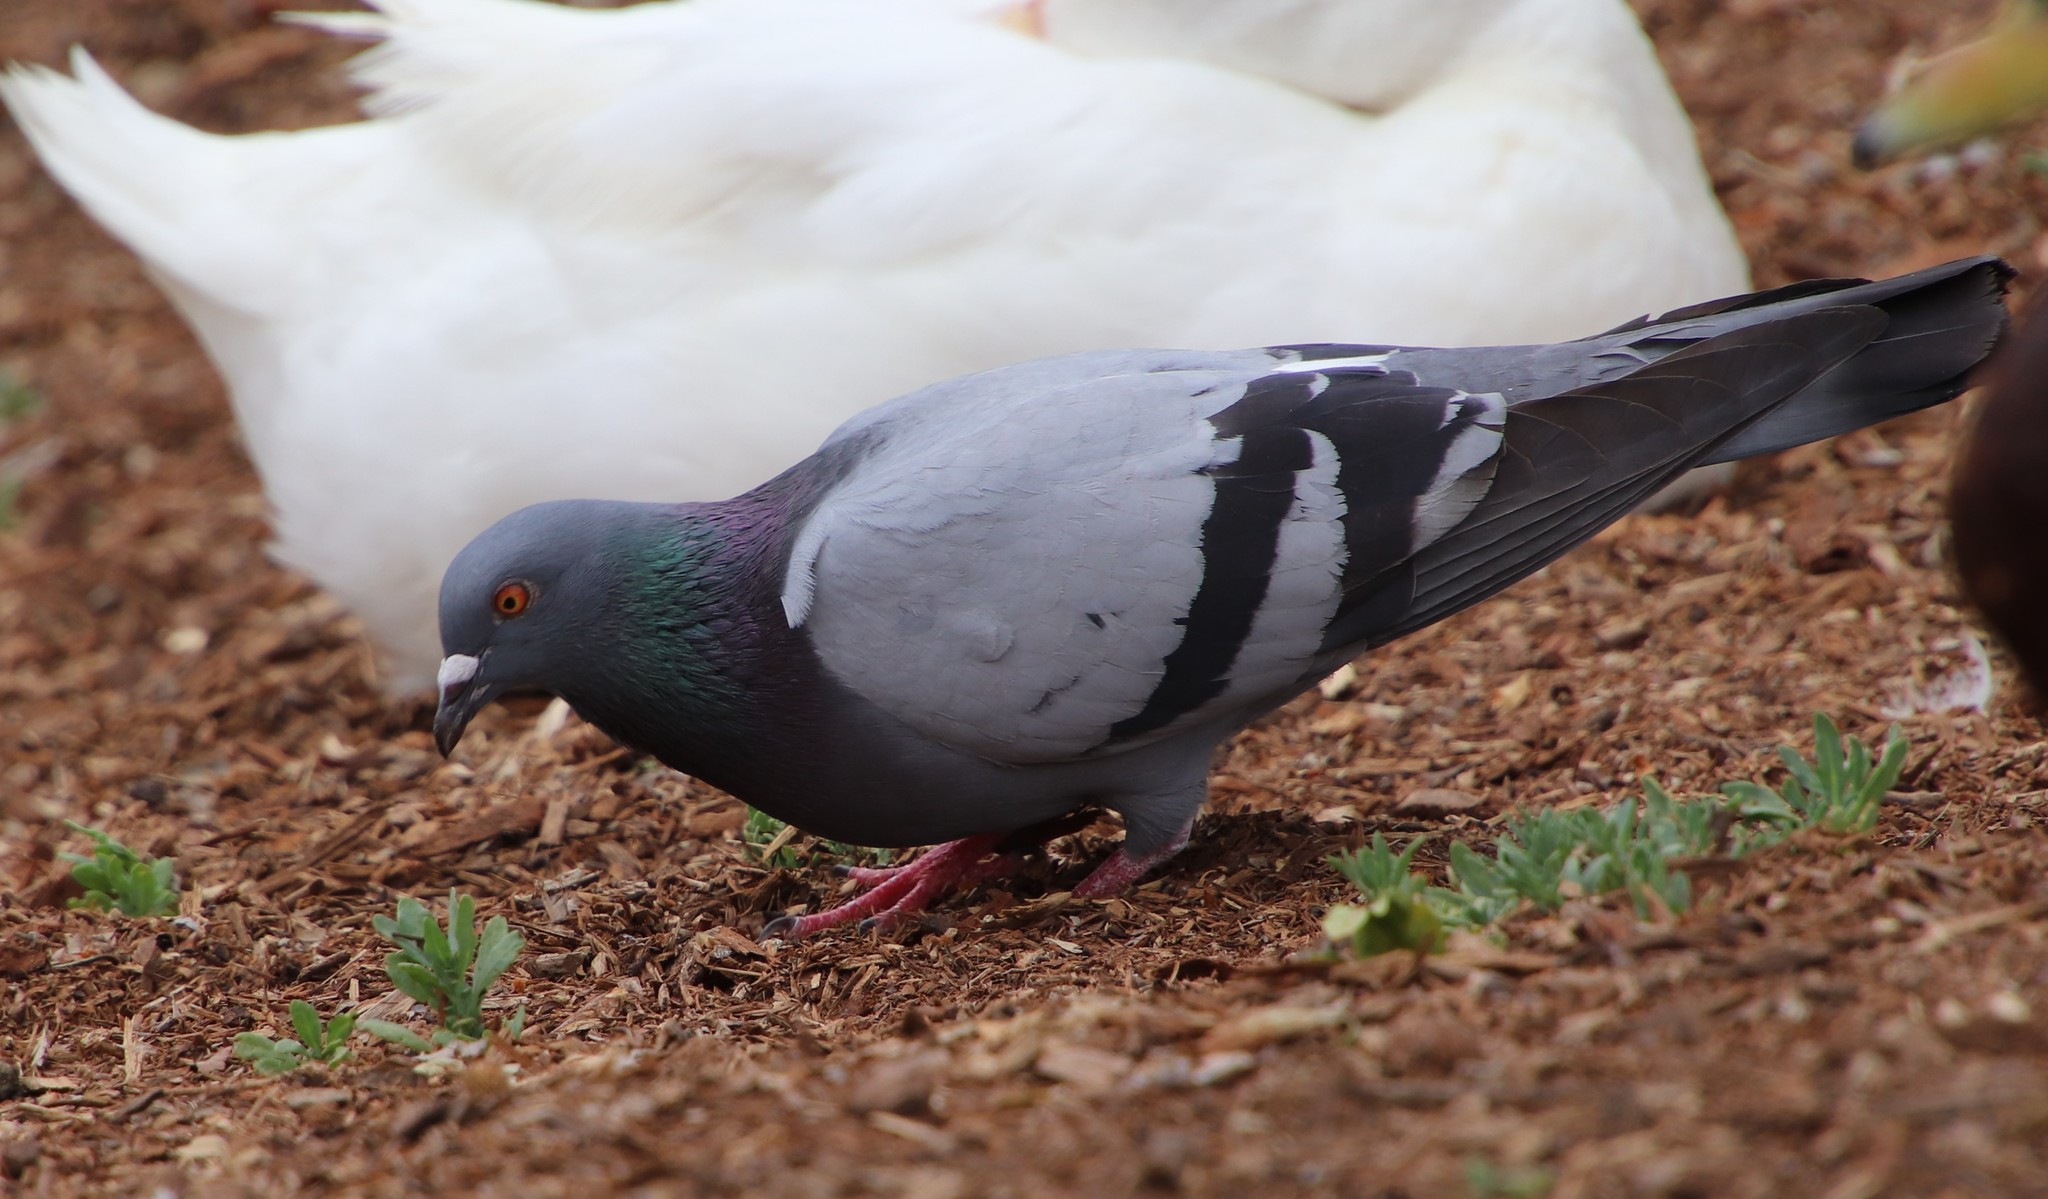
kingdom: Animalia
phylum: Chordata
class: Aves
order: Columbiformes
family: Columbidae
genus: Columba
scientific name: Columba livia
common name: Rock pigeon
